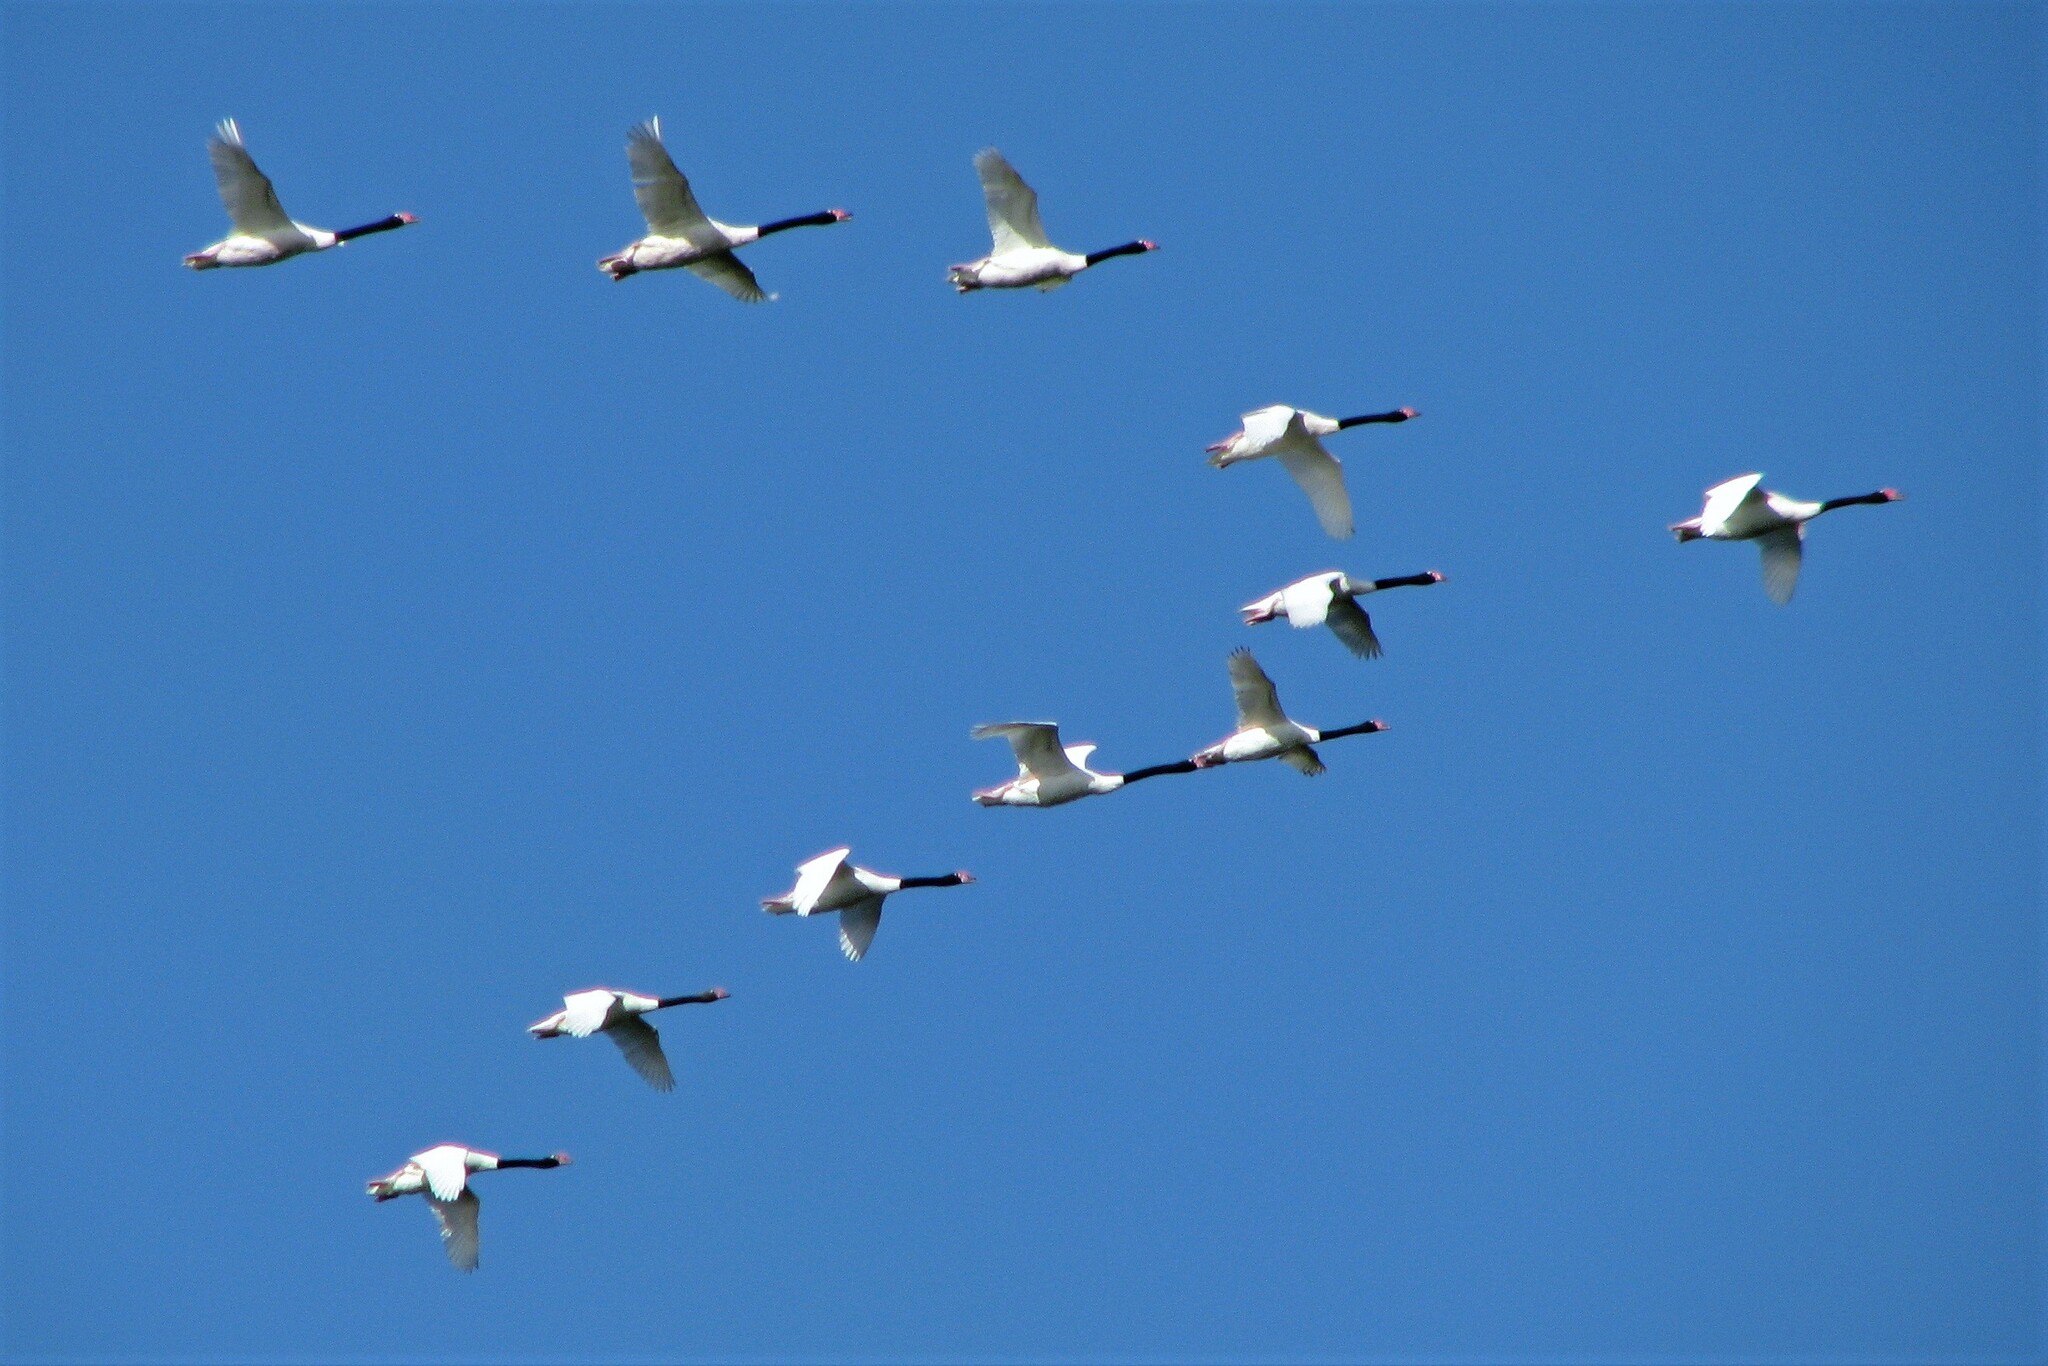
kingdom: Animalia
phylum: Chordata
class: Aves
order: Anseriformes
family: Anatidae
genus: Cygnus
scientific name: Cygnus melancoryphus
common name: Black-necked swan
